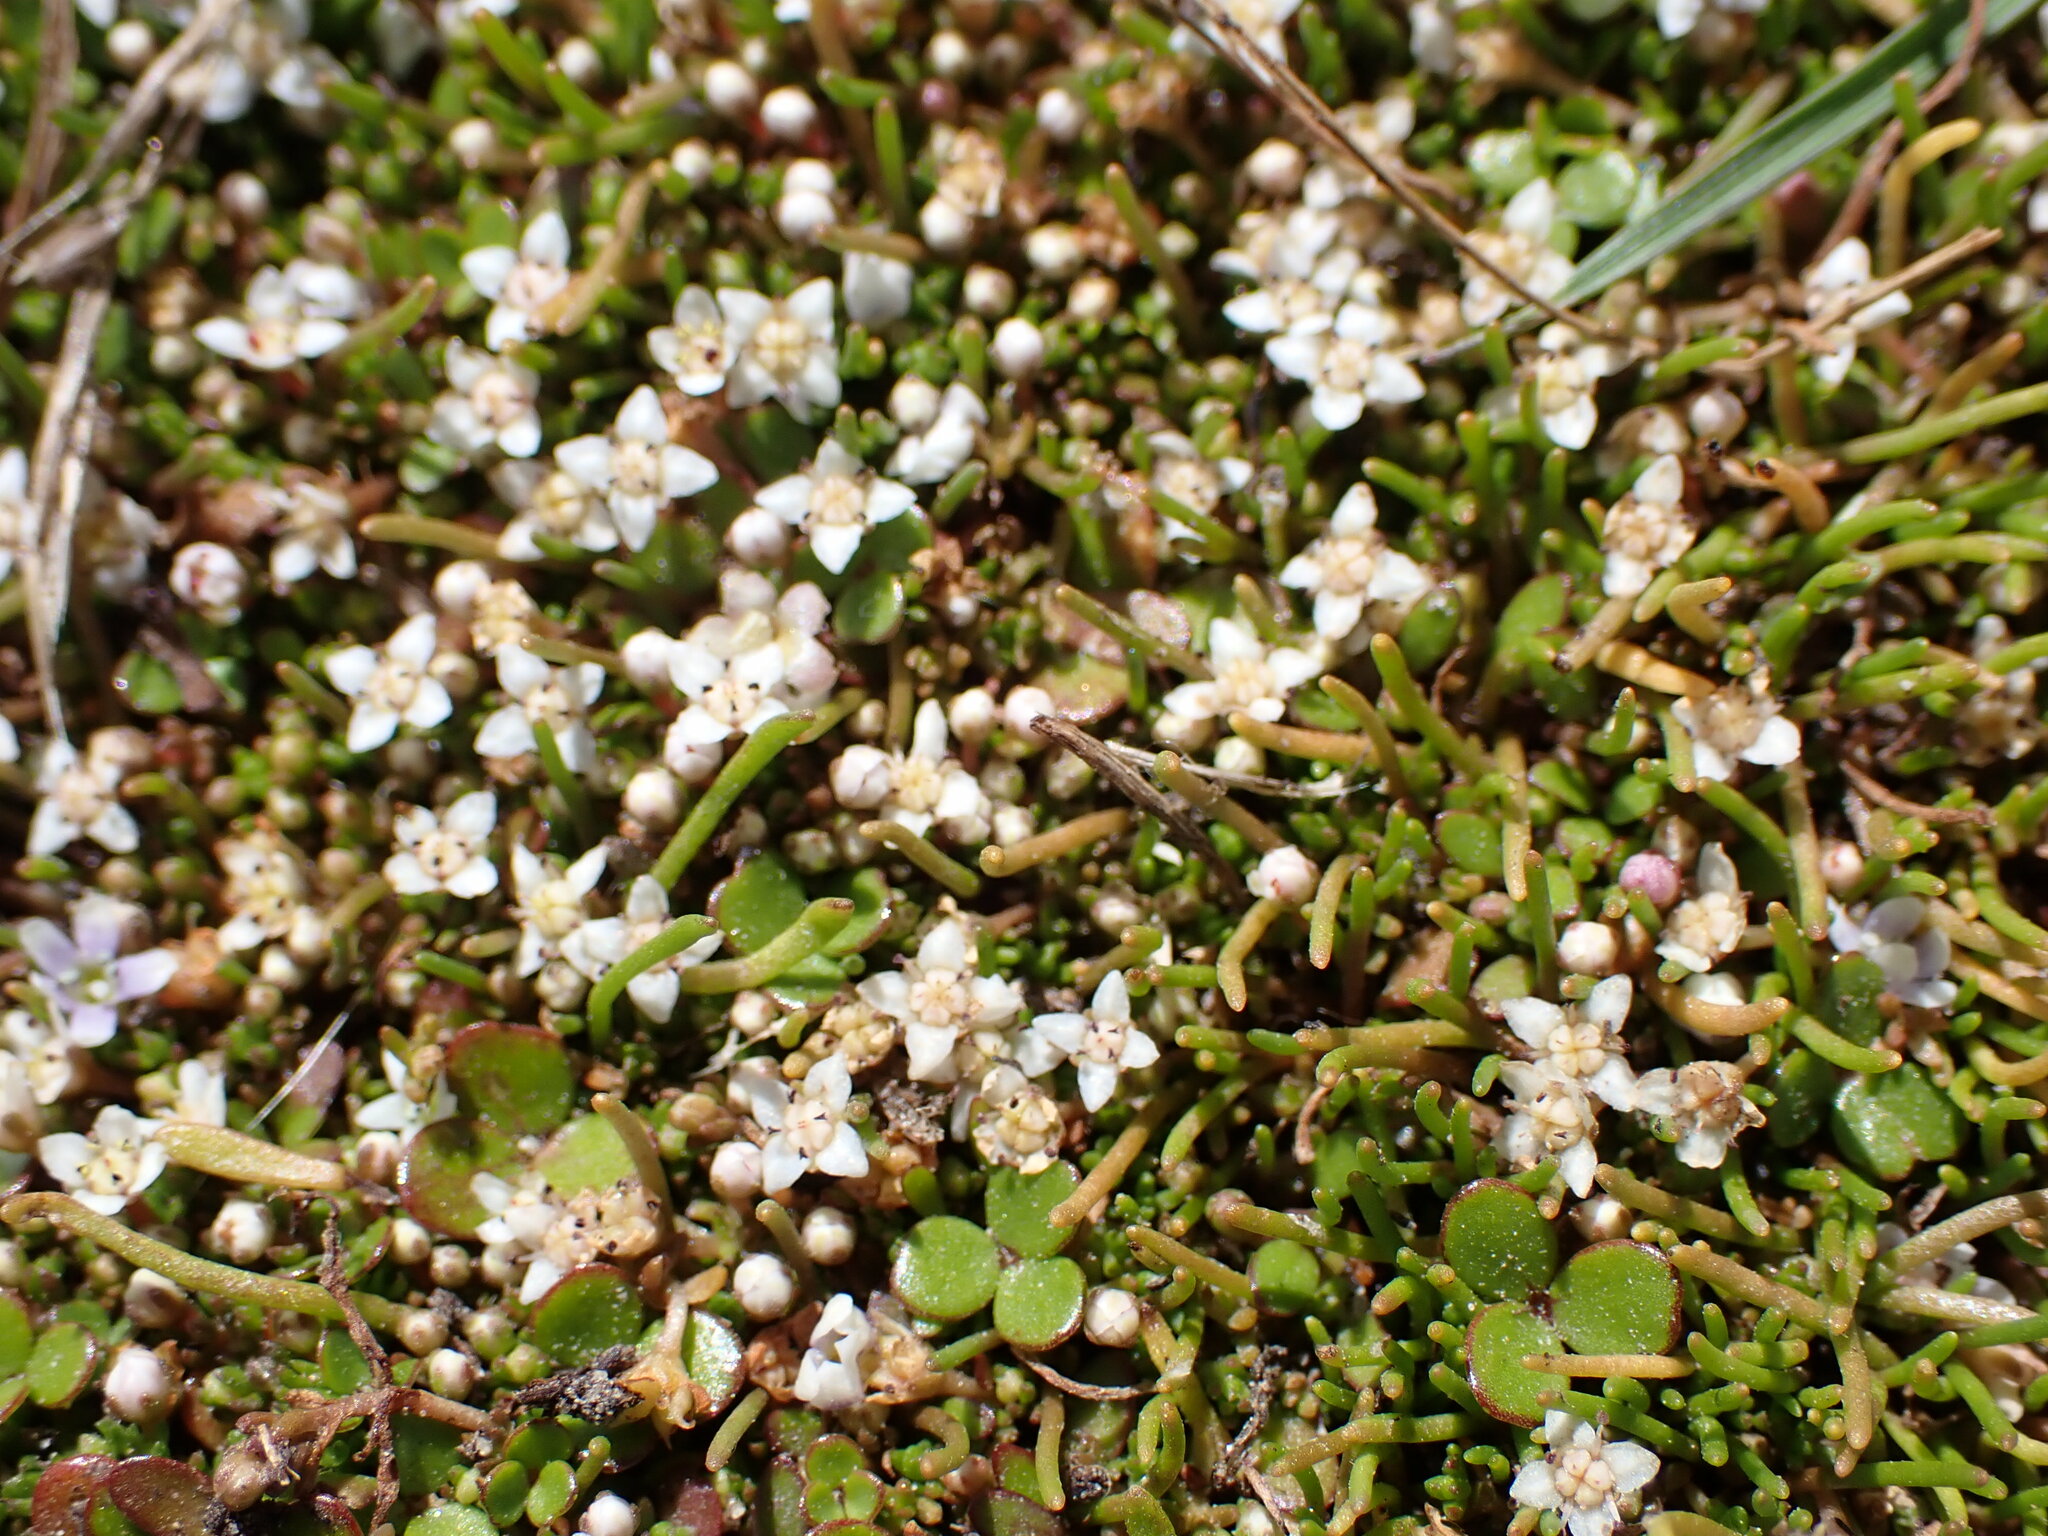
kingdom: Plantae
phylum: Tracheophyta
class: Magnoliopsida
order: Saxifragales
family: Crassulaceae
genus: Crassula
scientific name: Crassula sinclairii
